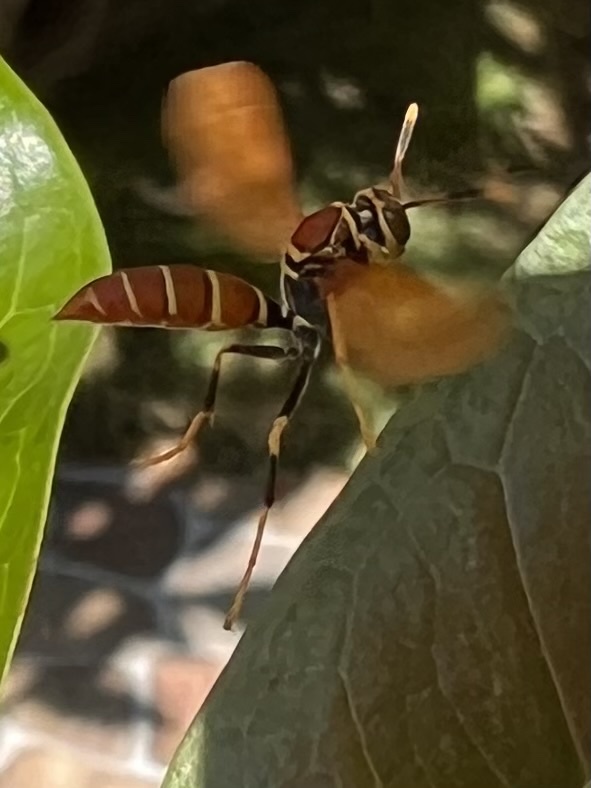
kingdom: Animalia
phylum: Arthropoda
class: Insecta
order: Hymenoptera
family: Eumenidae
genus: Polistes
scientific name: Polistes crinitus
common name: Jack spaniard
